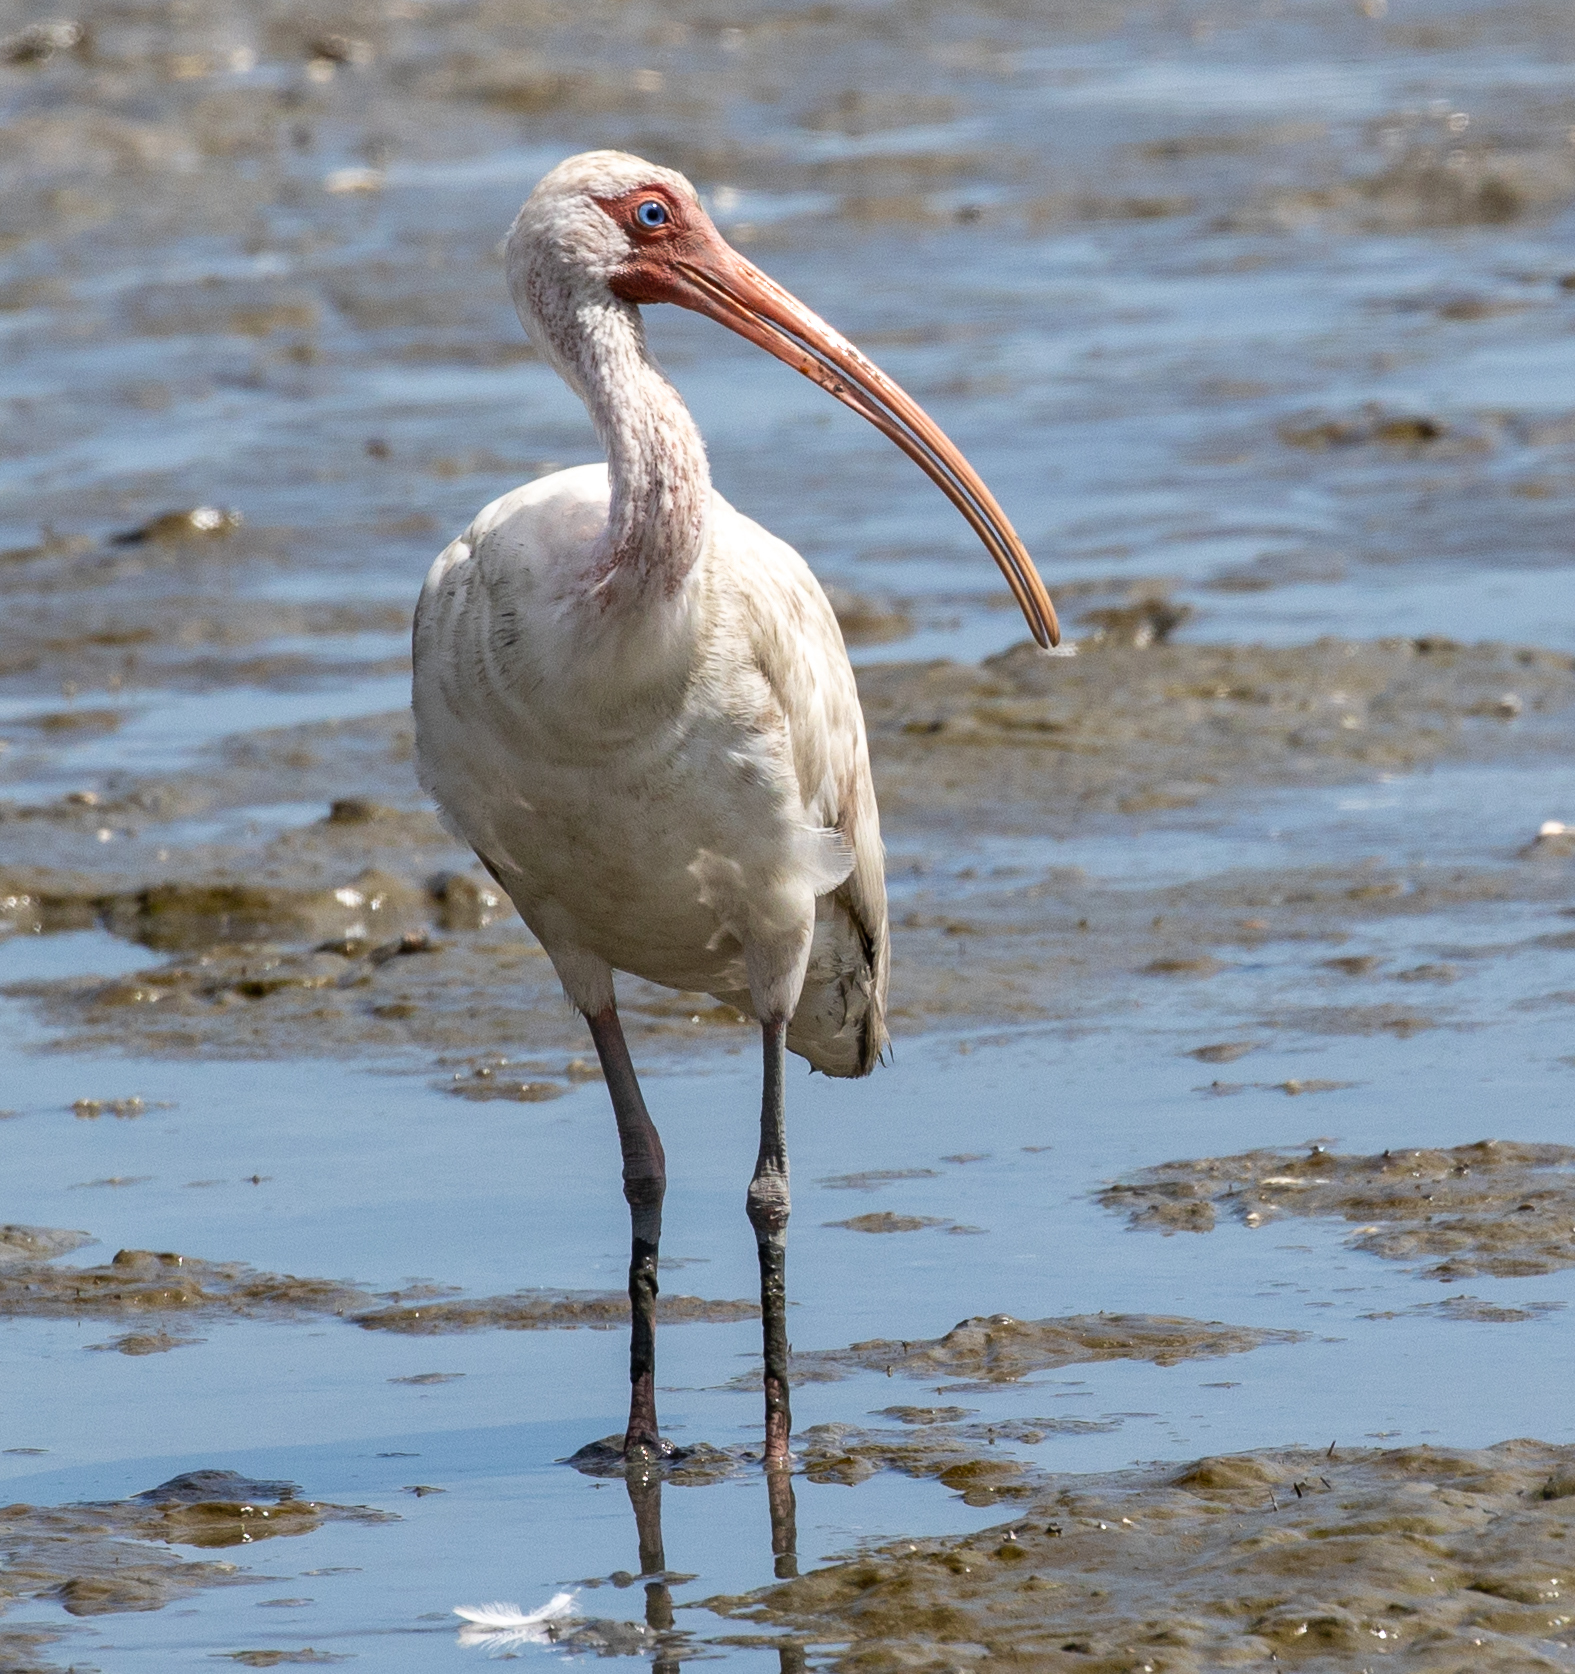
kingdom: Animalia
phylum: Chordata
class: Aves
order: Pelecaniformes
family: Threskiornithidae
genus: Eudocimus
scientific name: Eudocimus albus
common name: White ibis
